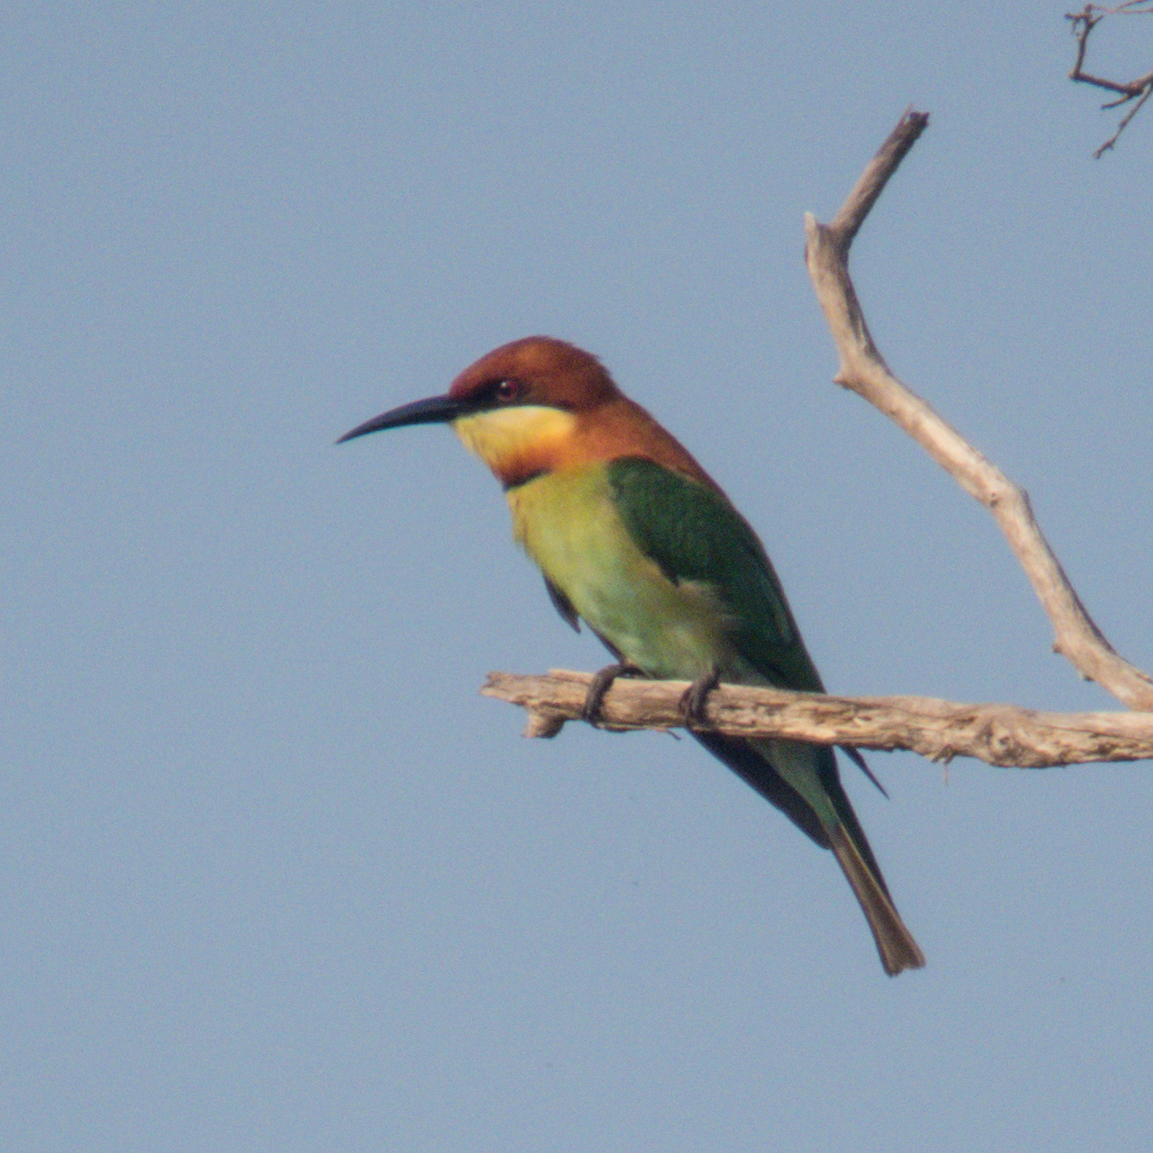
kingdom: Animalia
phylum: Chordata
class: Aves
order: Coraciiformes
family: Meropidae
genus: Merops
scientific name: Merops leschenaulti
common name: Chestnut-headed bee-eater
